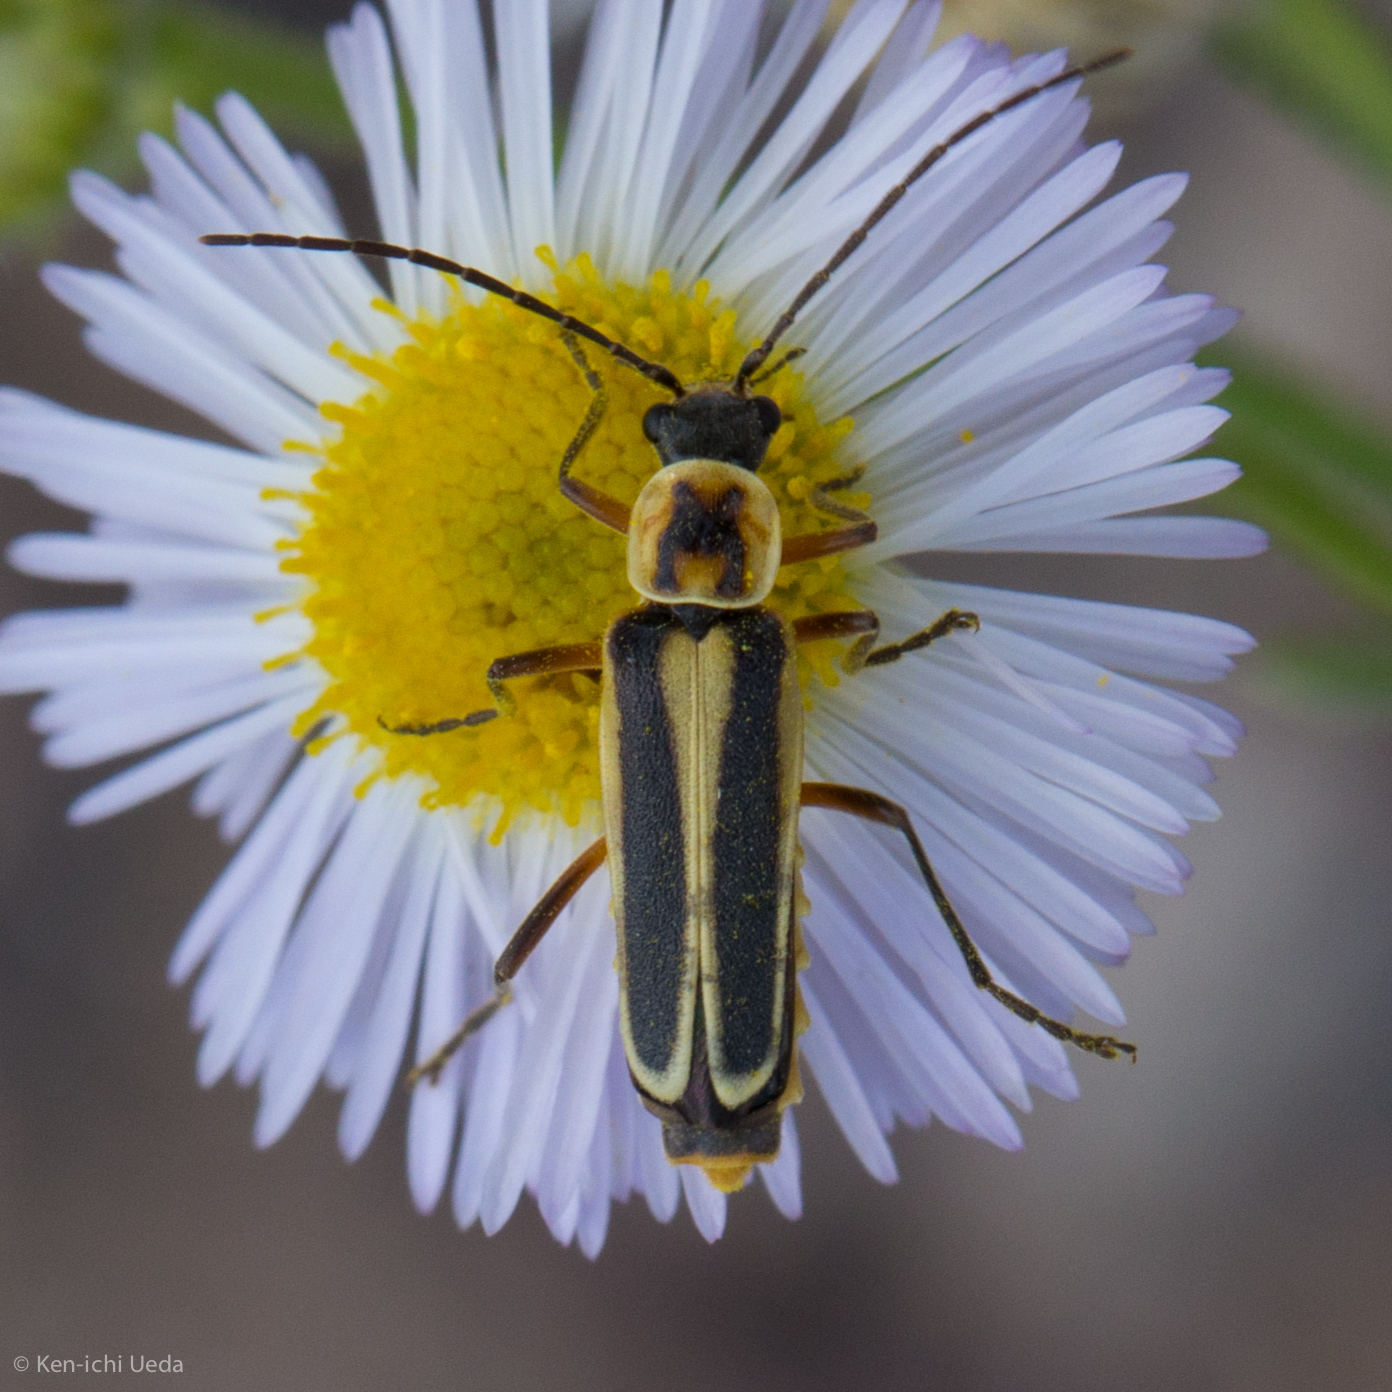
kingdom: Animalia
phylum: Arthropoda
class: Insecta
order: Coleoptera
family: Cantharidae
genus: Chauliognathus
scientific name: Chauliognathus lewisi
